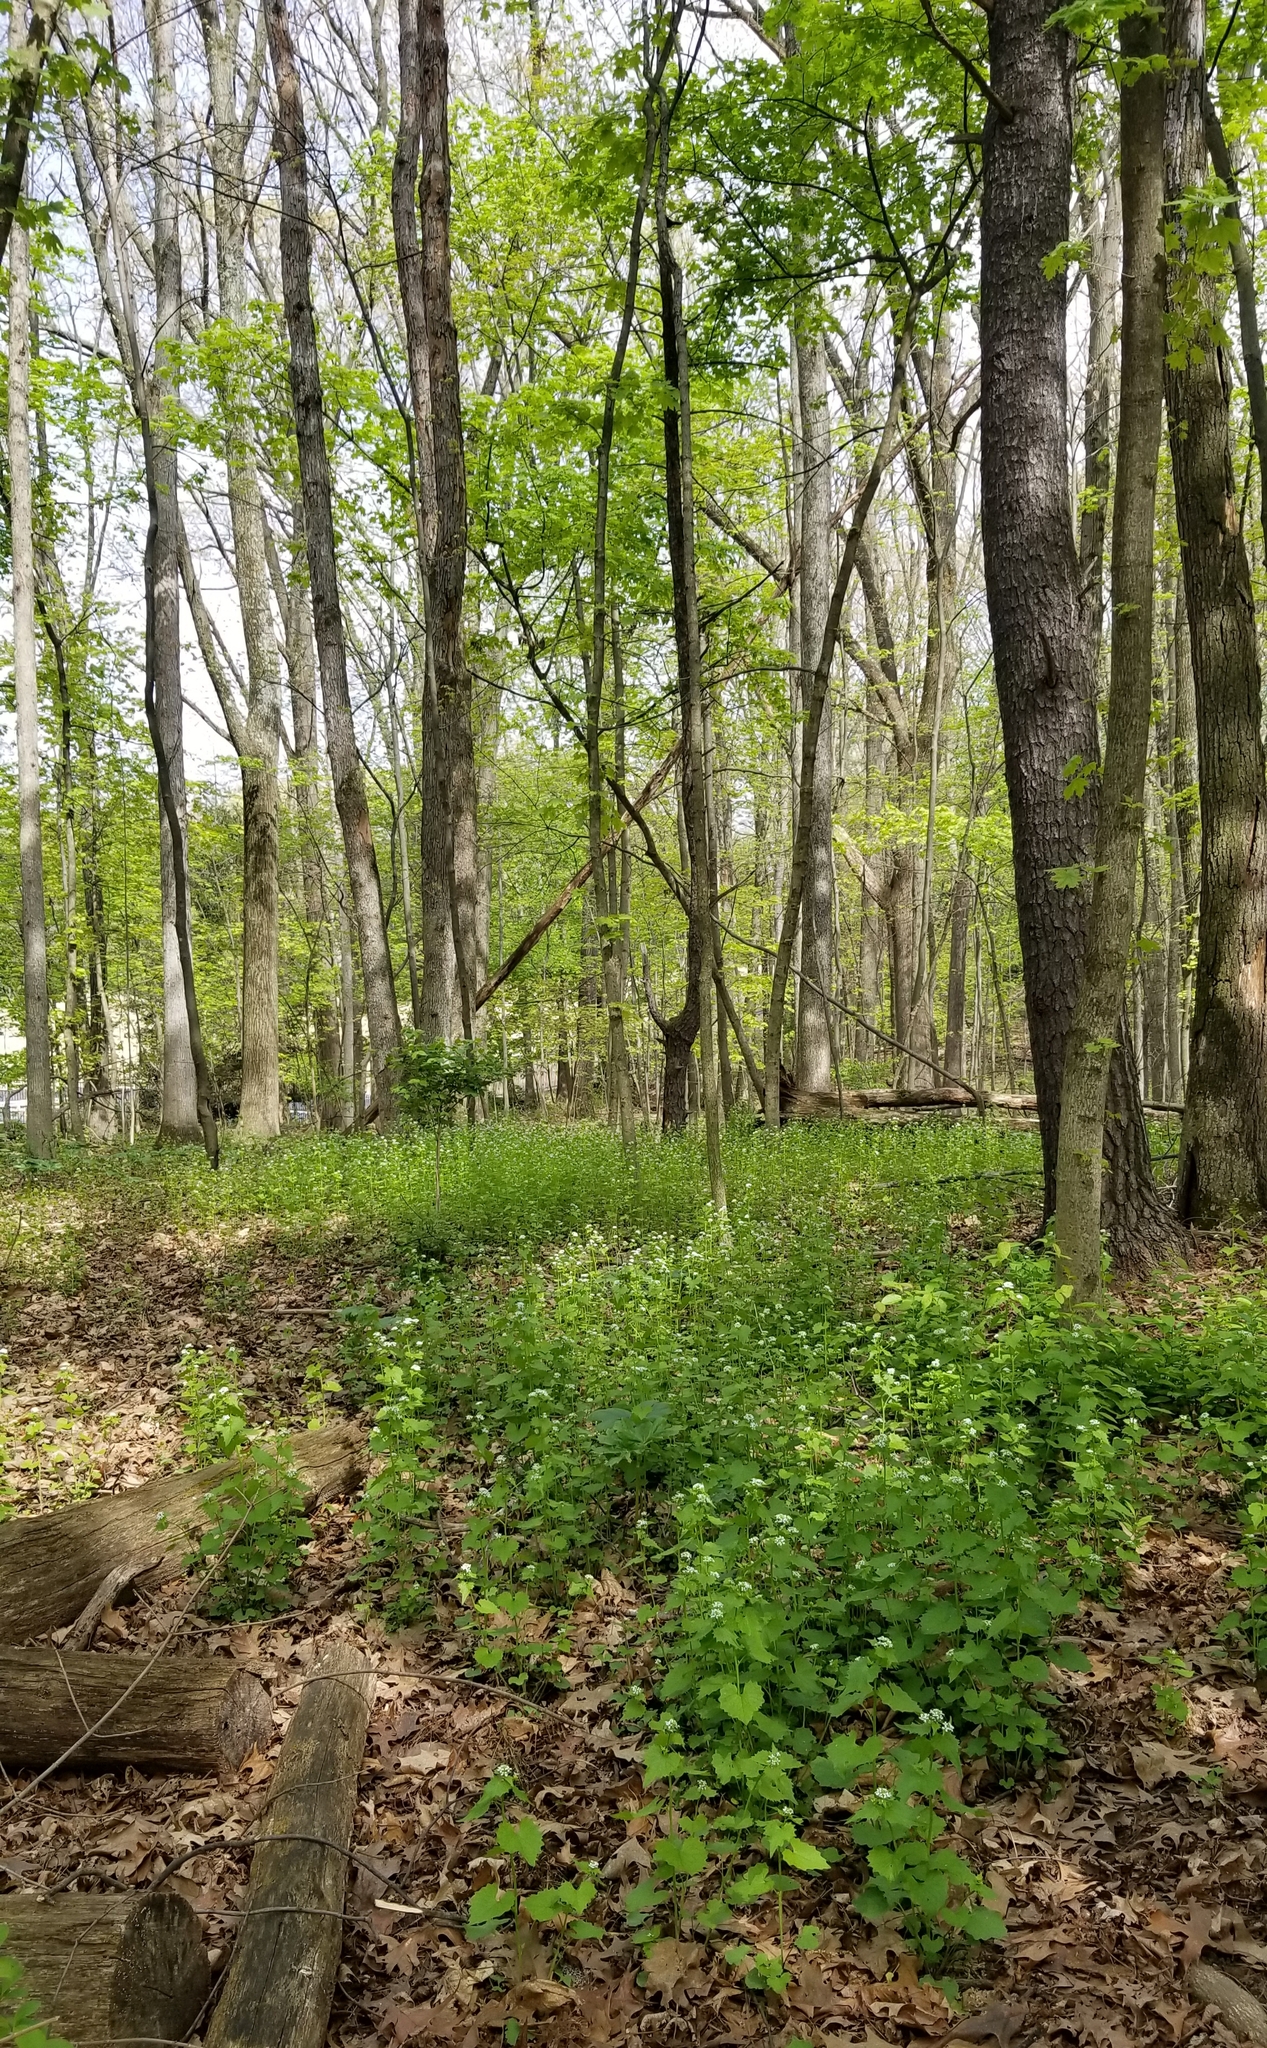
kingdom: Plantae
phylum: Tracheophyta
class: Magnoliopsida
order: Brassicales
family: Brassicaceae
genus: Alliaria
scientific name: Alliaria petiolata
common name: Garlic mustard
